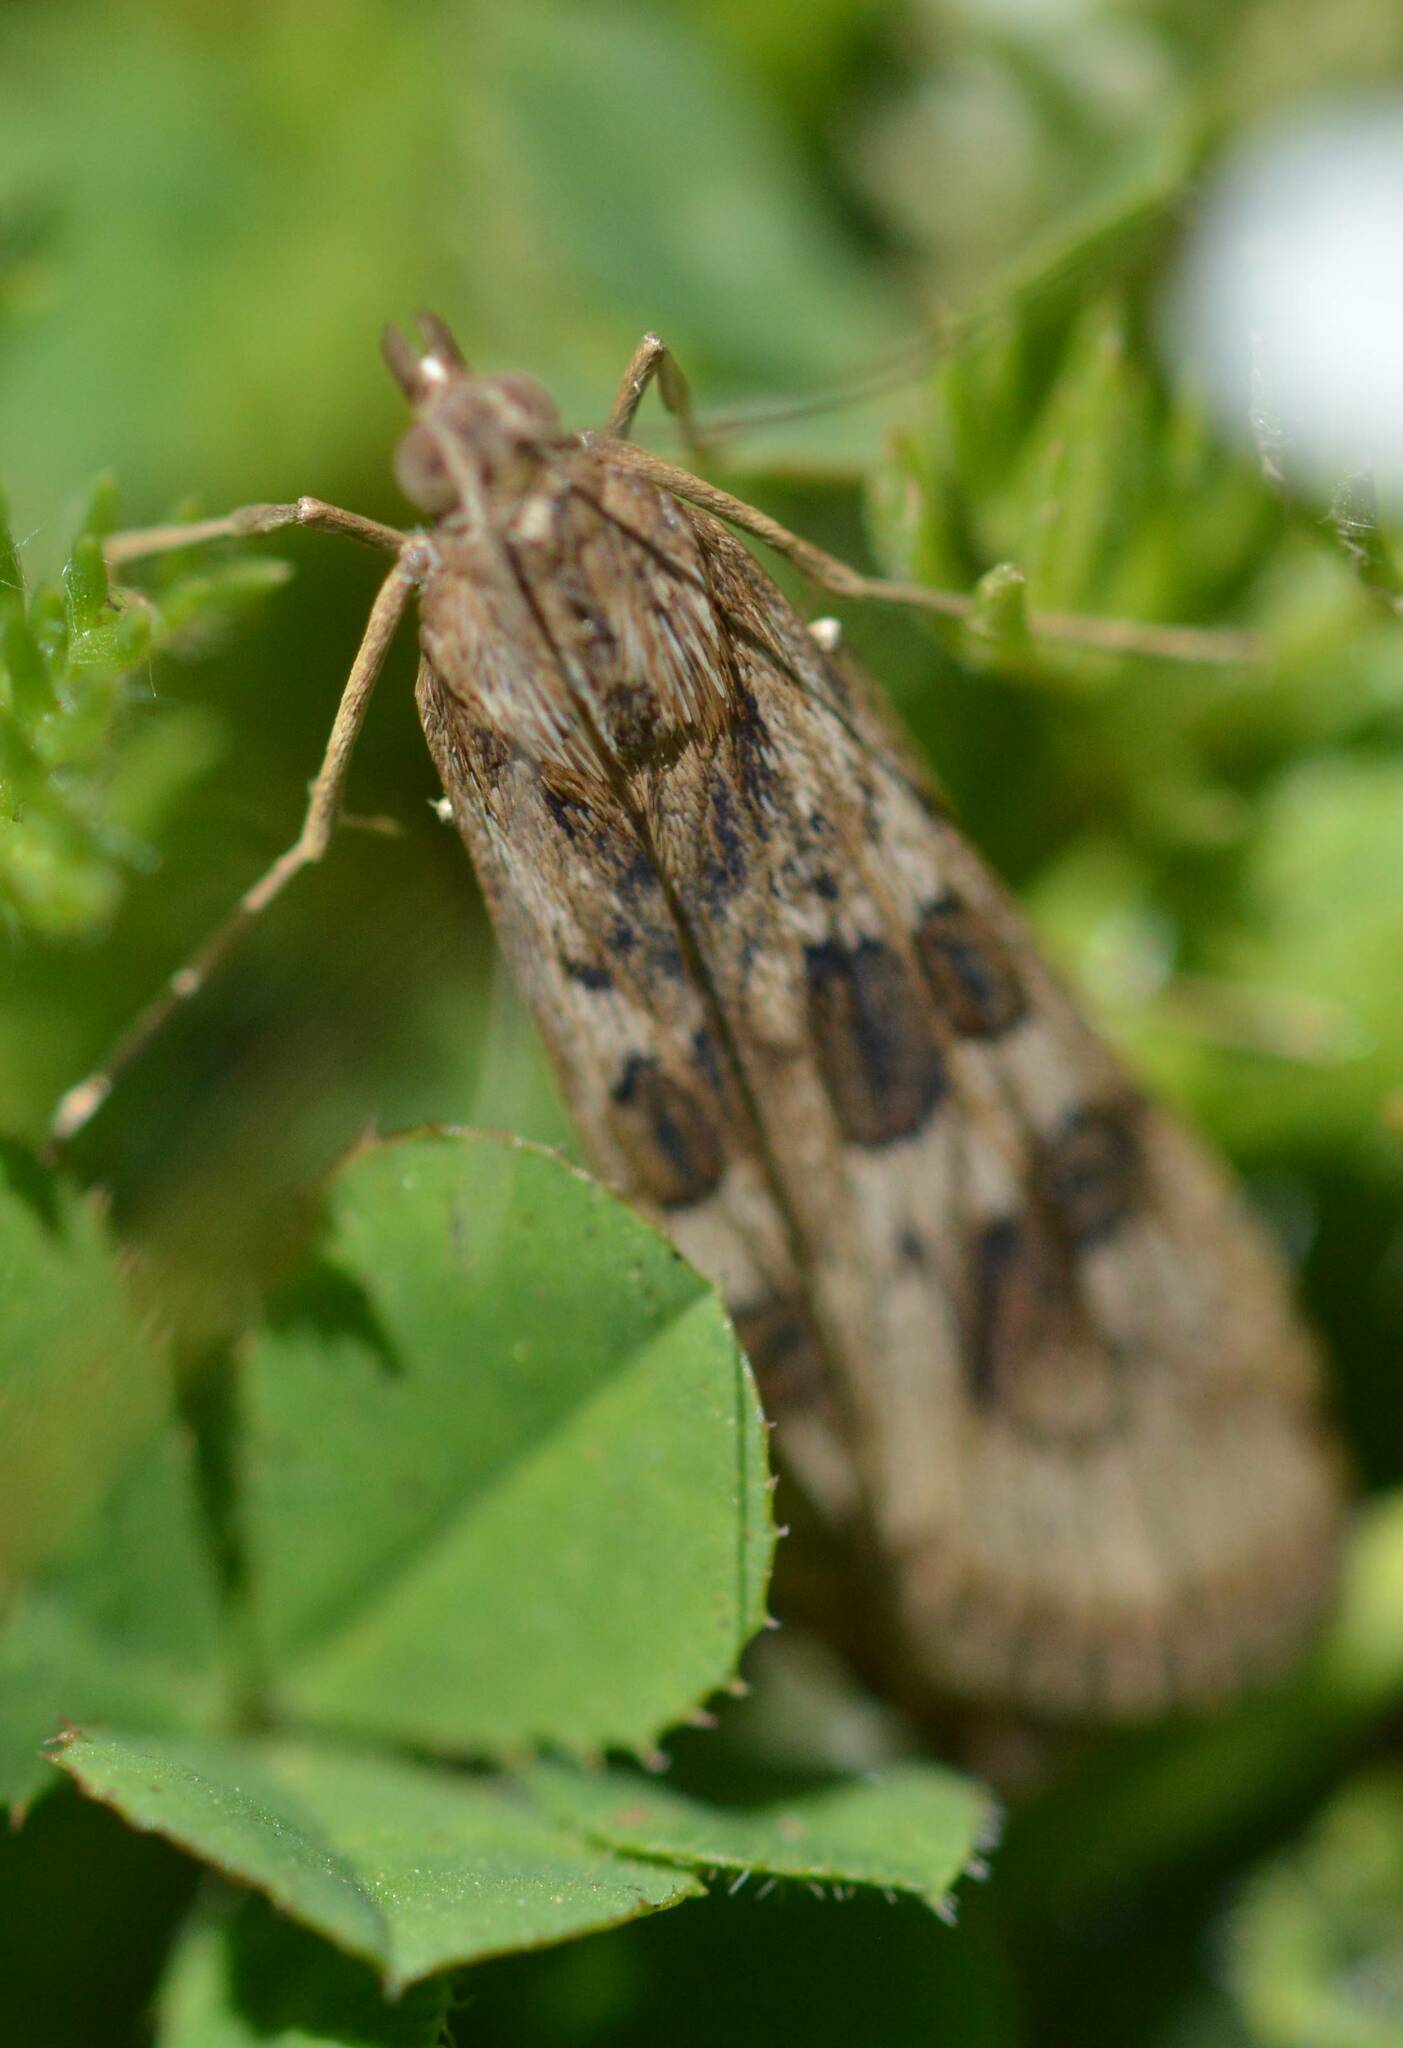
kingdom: Animalia
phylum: Arthropoda
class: Insecta
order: Lepidoptera
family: Crambidae
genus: Nomophila
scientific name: Nomophila noctuella
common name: Rush veneer
